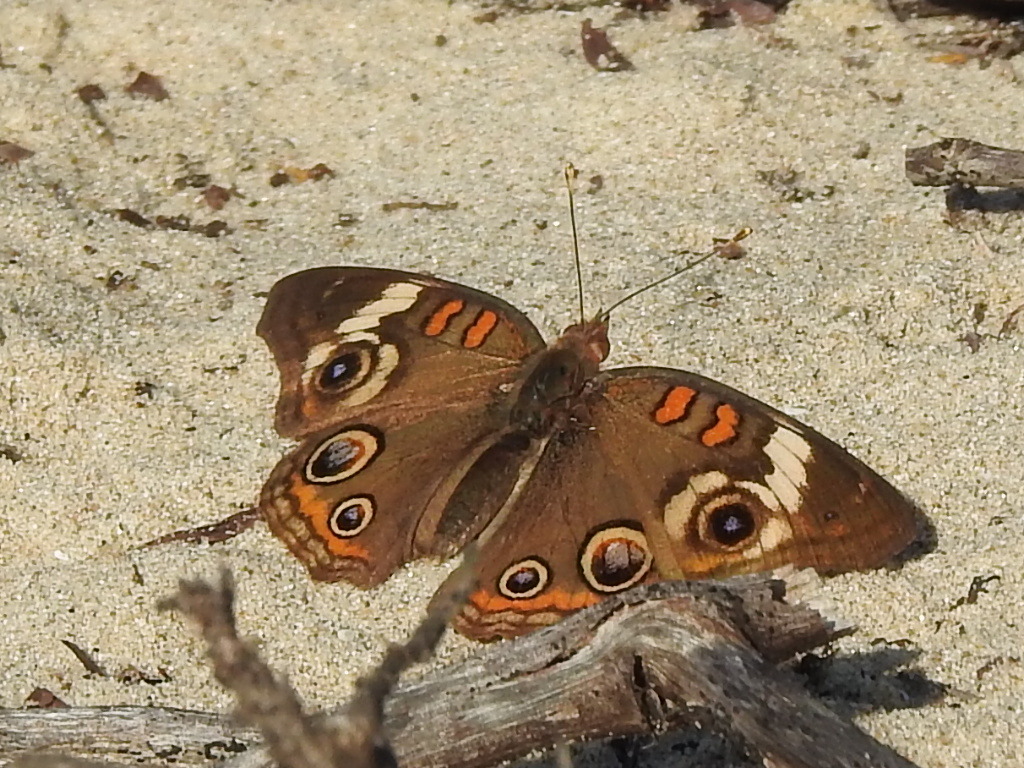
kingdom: Animalia
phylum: Arthropoda
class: Insecta
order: Lepidoptera
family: Nymphalidae
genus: Junonia
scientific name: Junonia coenia
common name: Common buckeye
